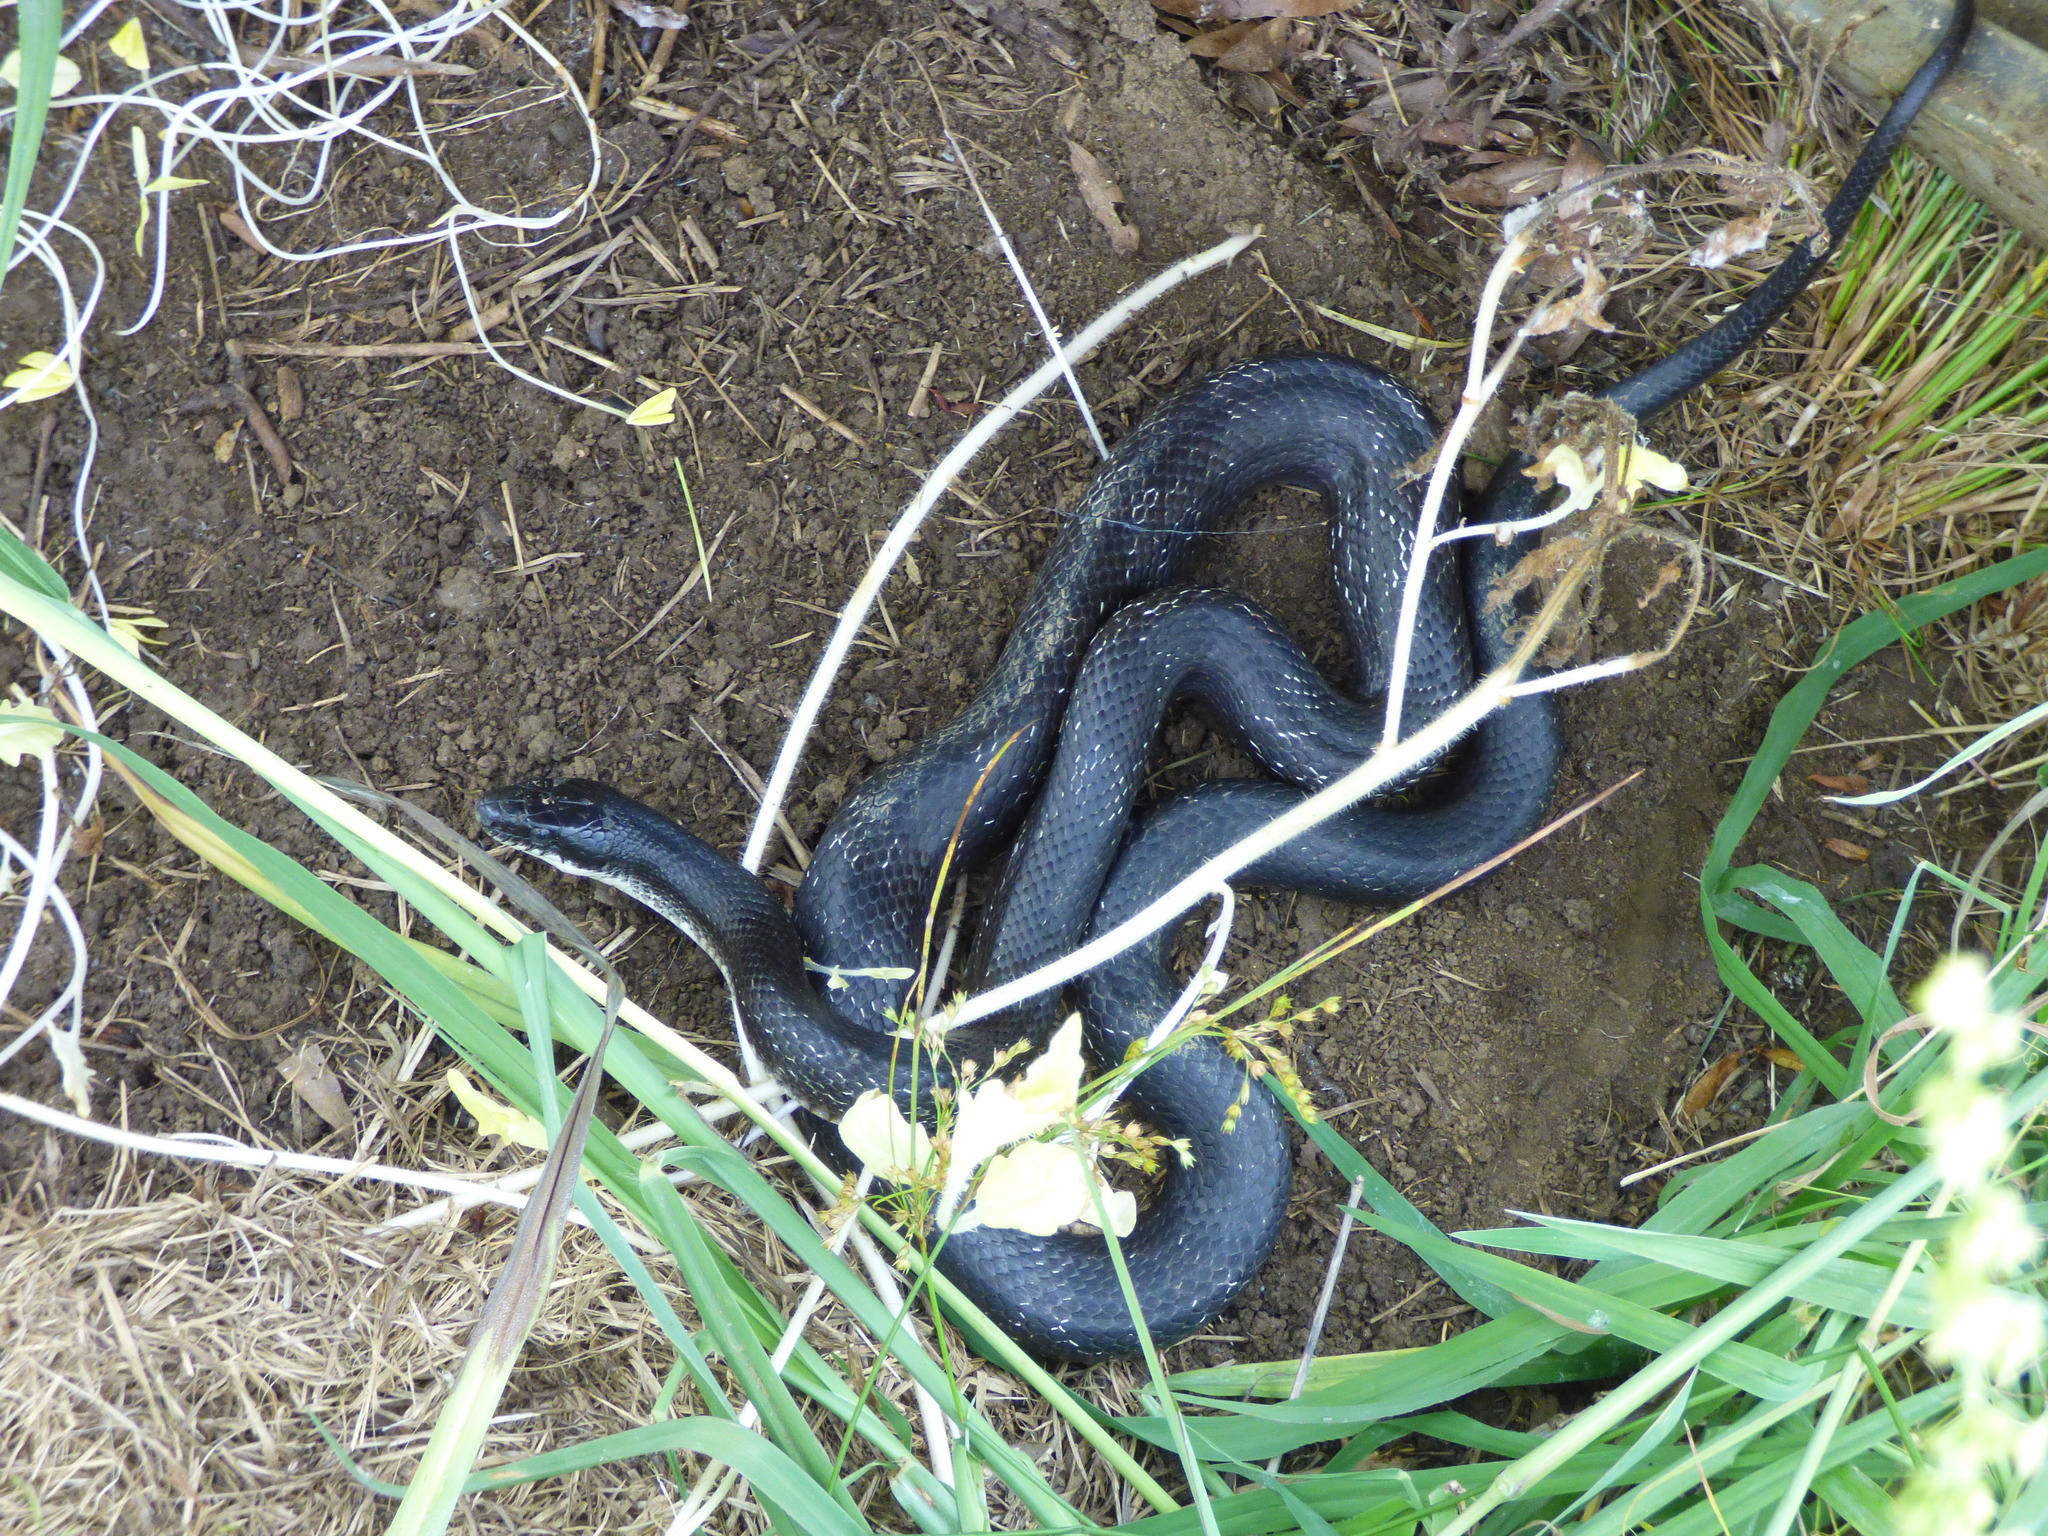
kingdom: Animalia
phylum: Chordata
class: Squamata
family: Colubridae
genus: Pantherophis
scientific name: Pantherophis alleghaniensis
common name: Eastern rat snake
